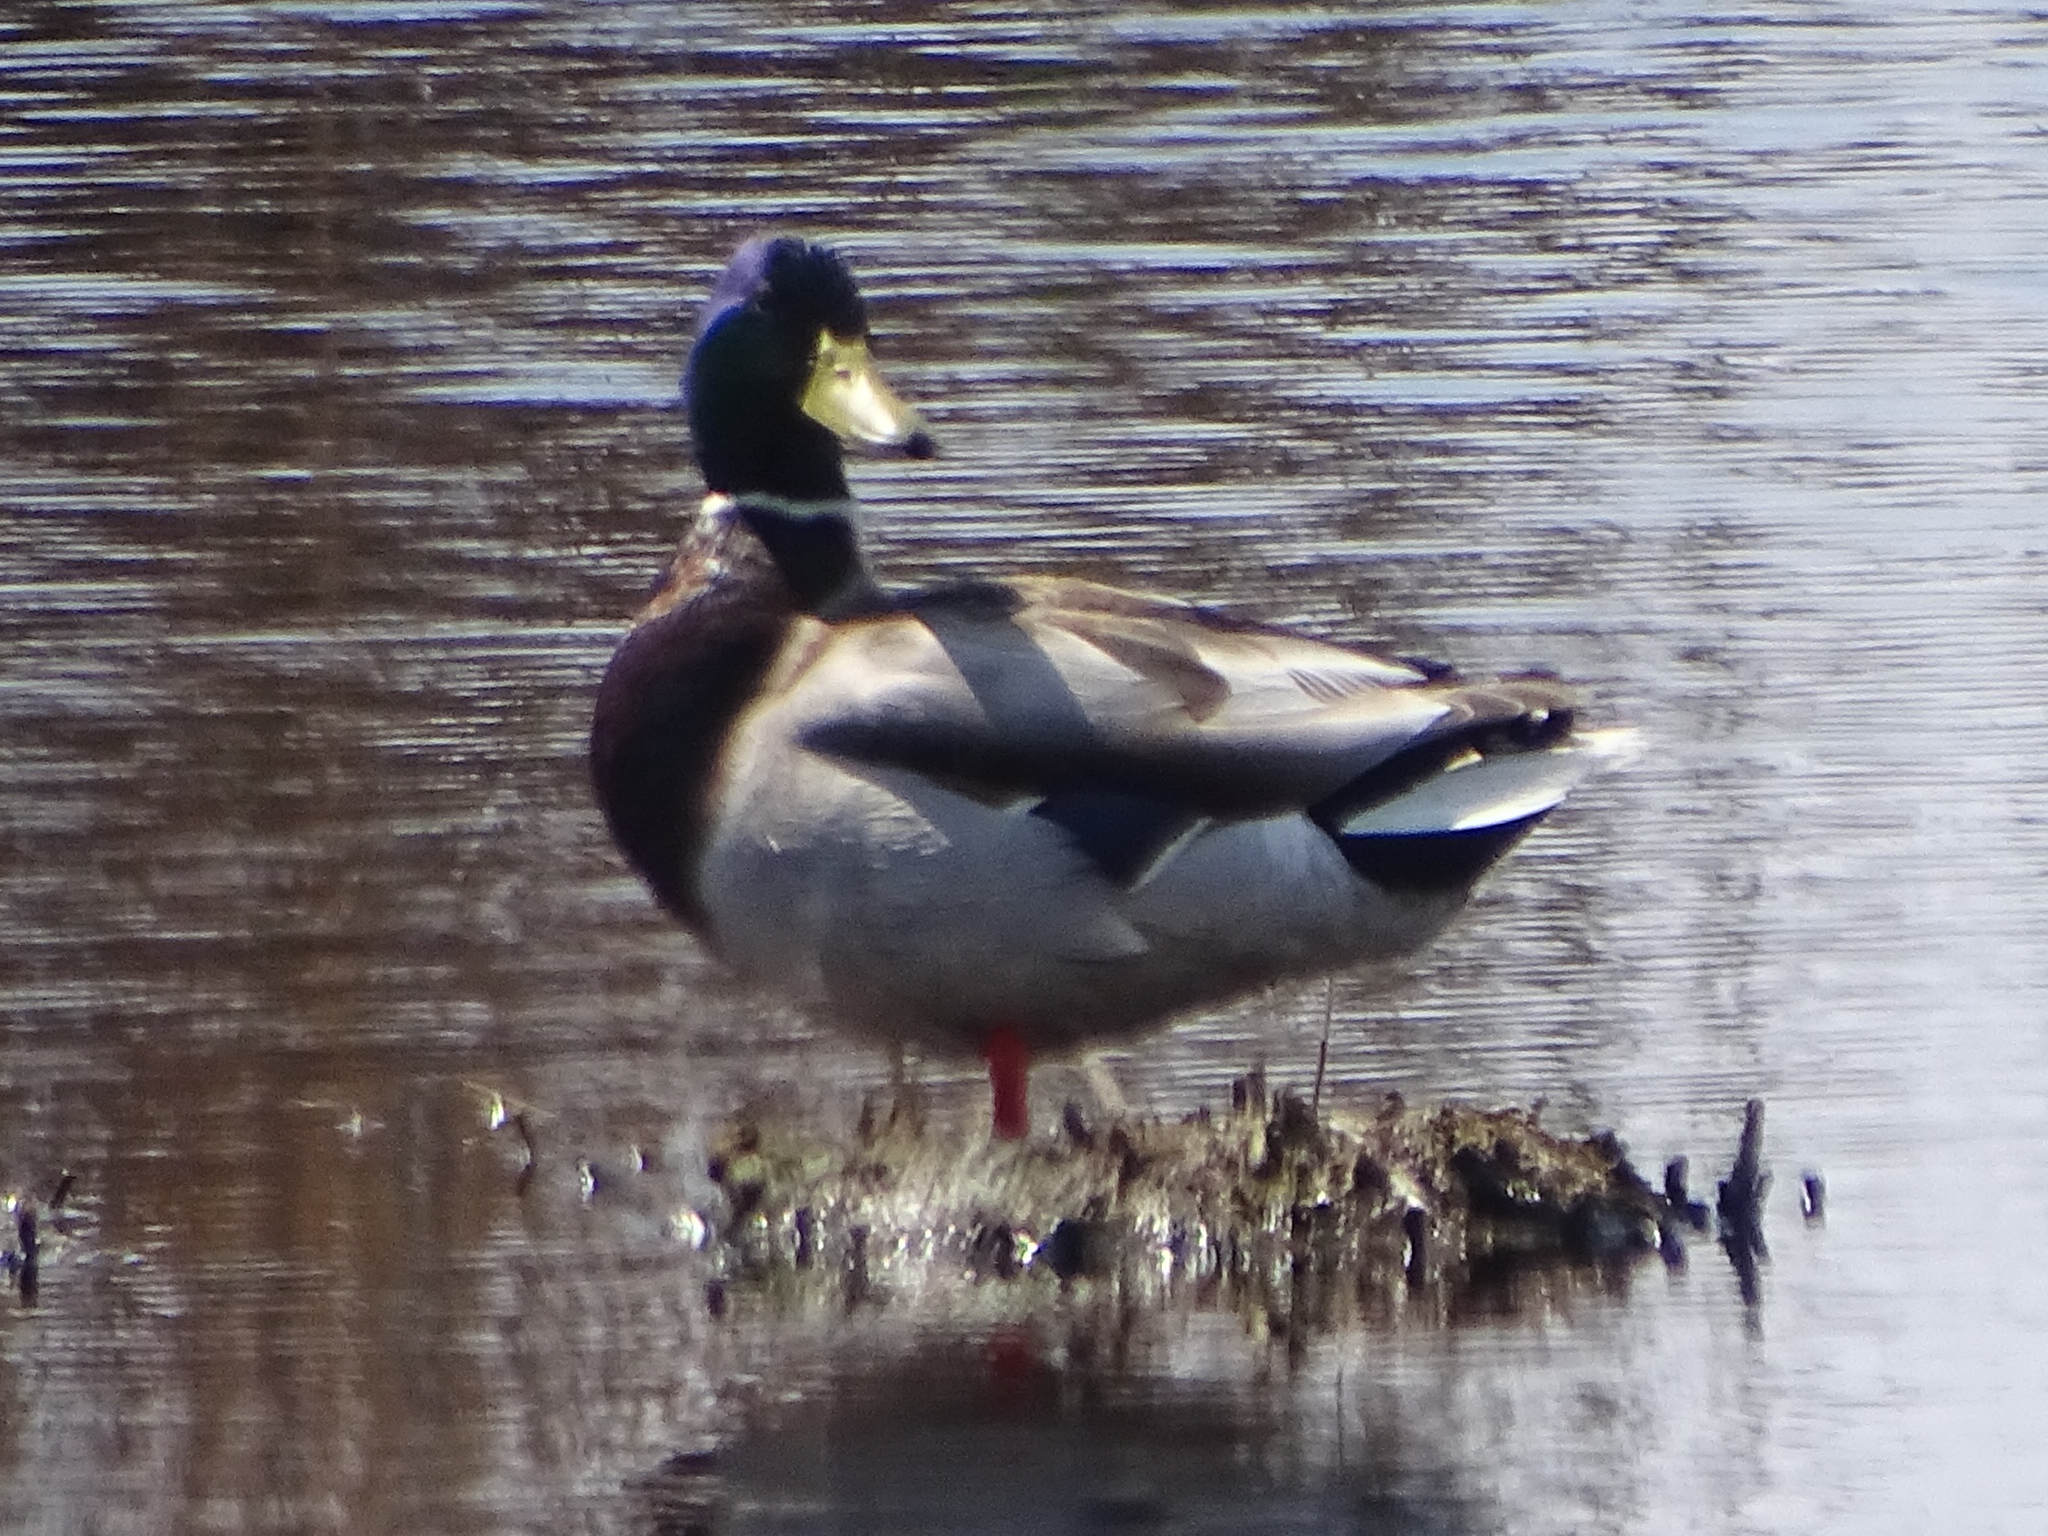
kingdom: Animalia
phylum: Chordata
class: Aves
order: Anseriformes
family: Anatidae
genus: Anas
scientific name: Anas platyrhynchos
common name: Mallard
